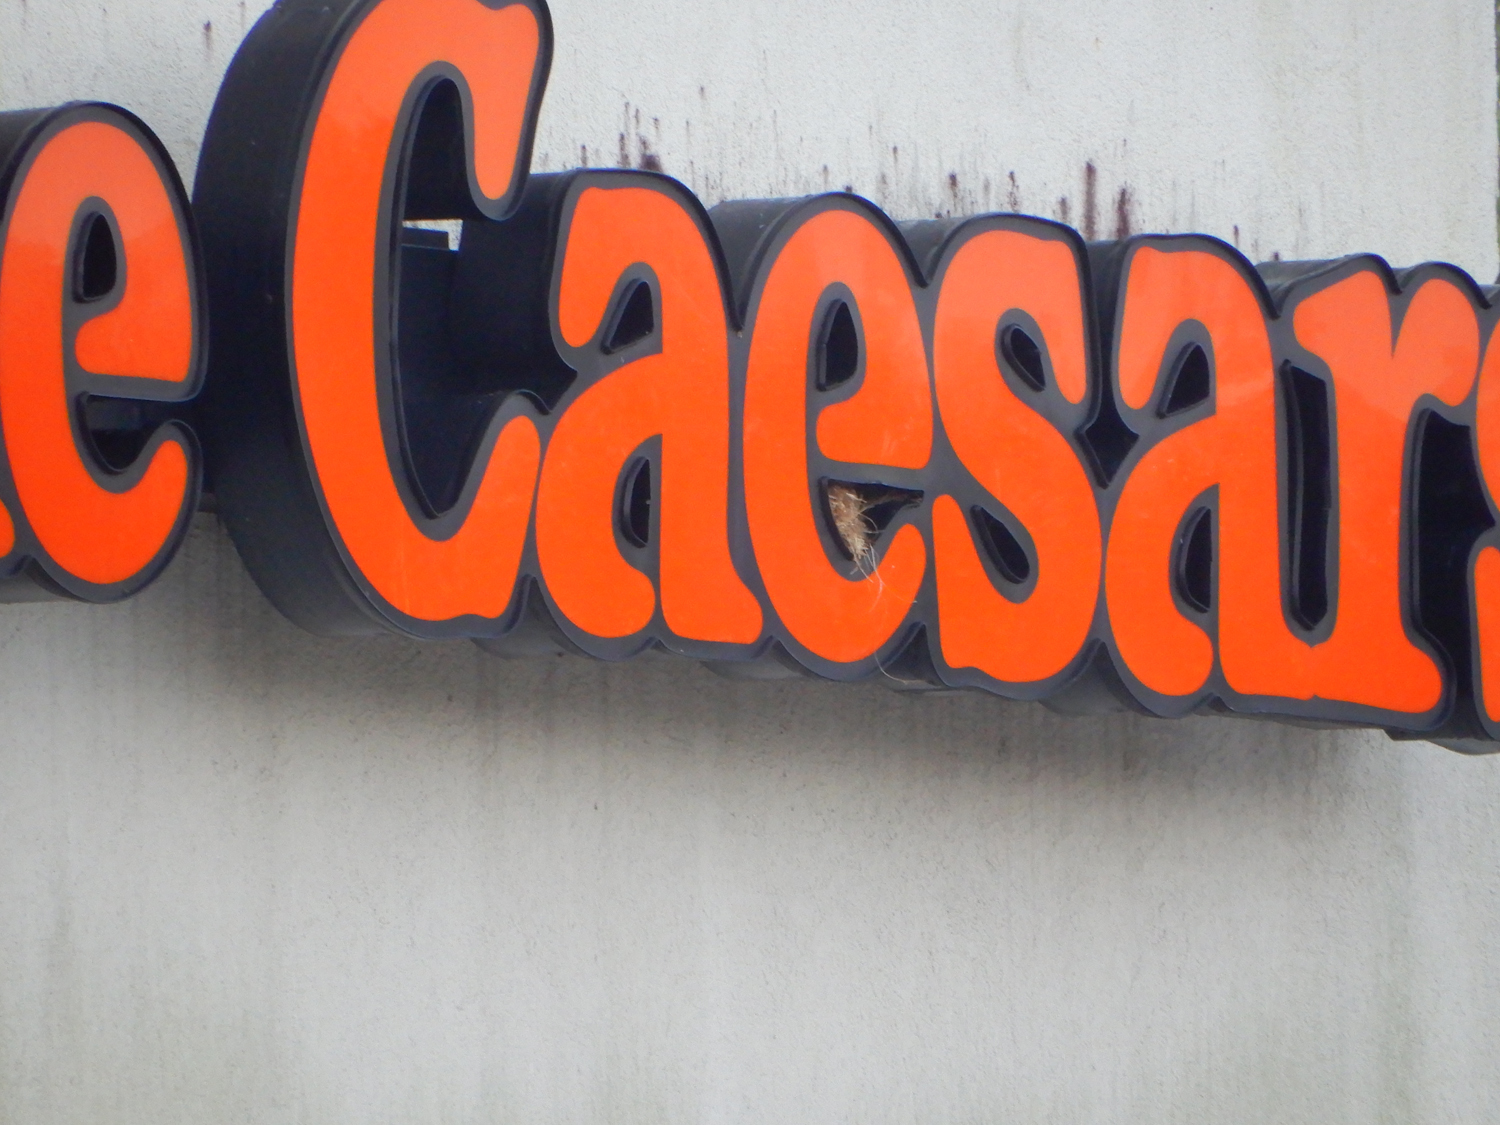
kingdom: Animalia
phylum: Chordata
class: Aves
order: Passeriformes
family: Passeridae
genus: Passer
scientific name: Passer domesticus
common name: House sparrow
